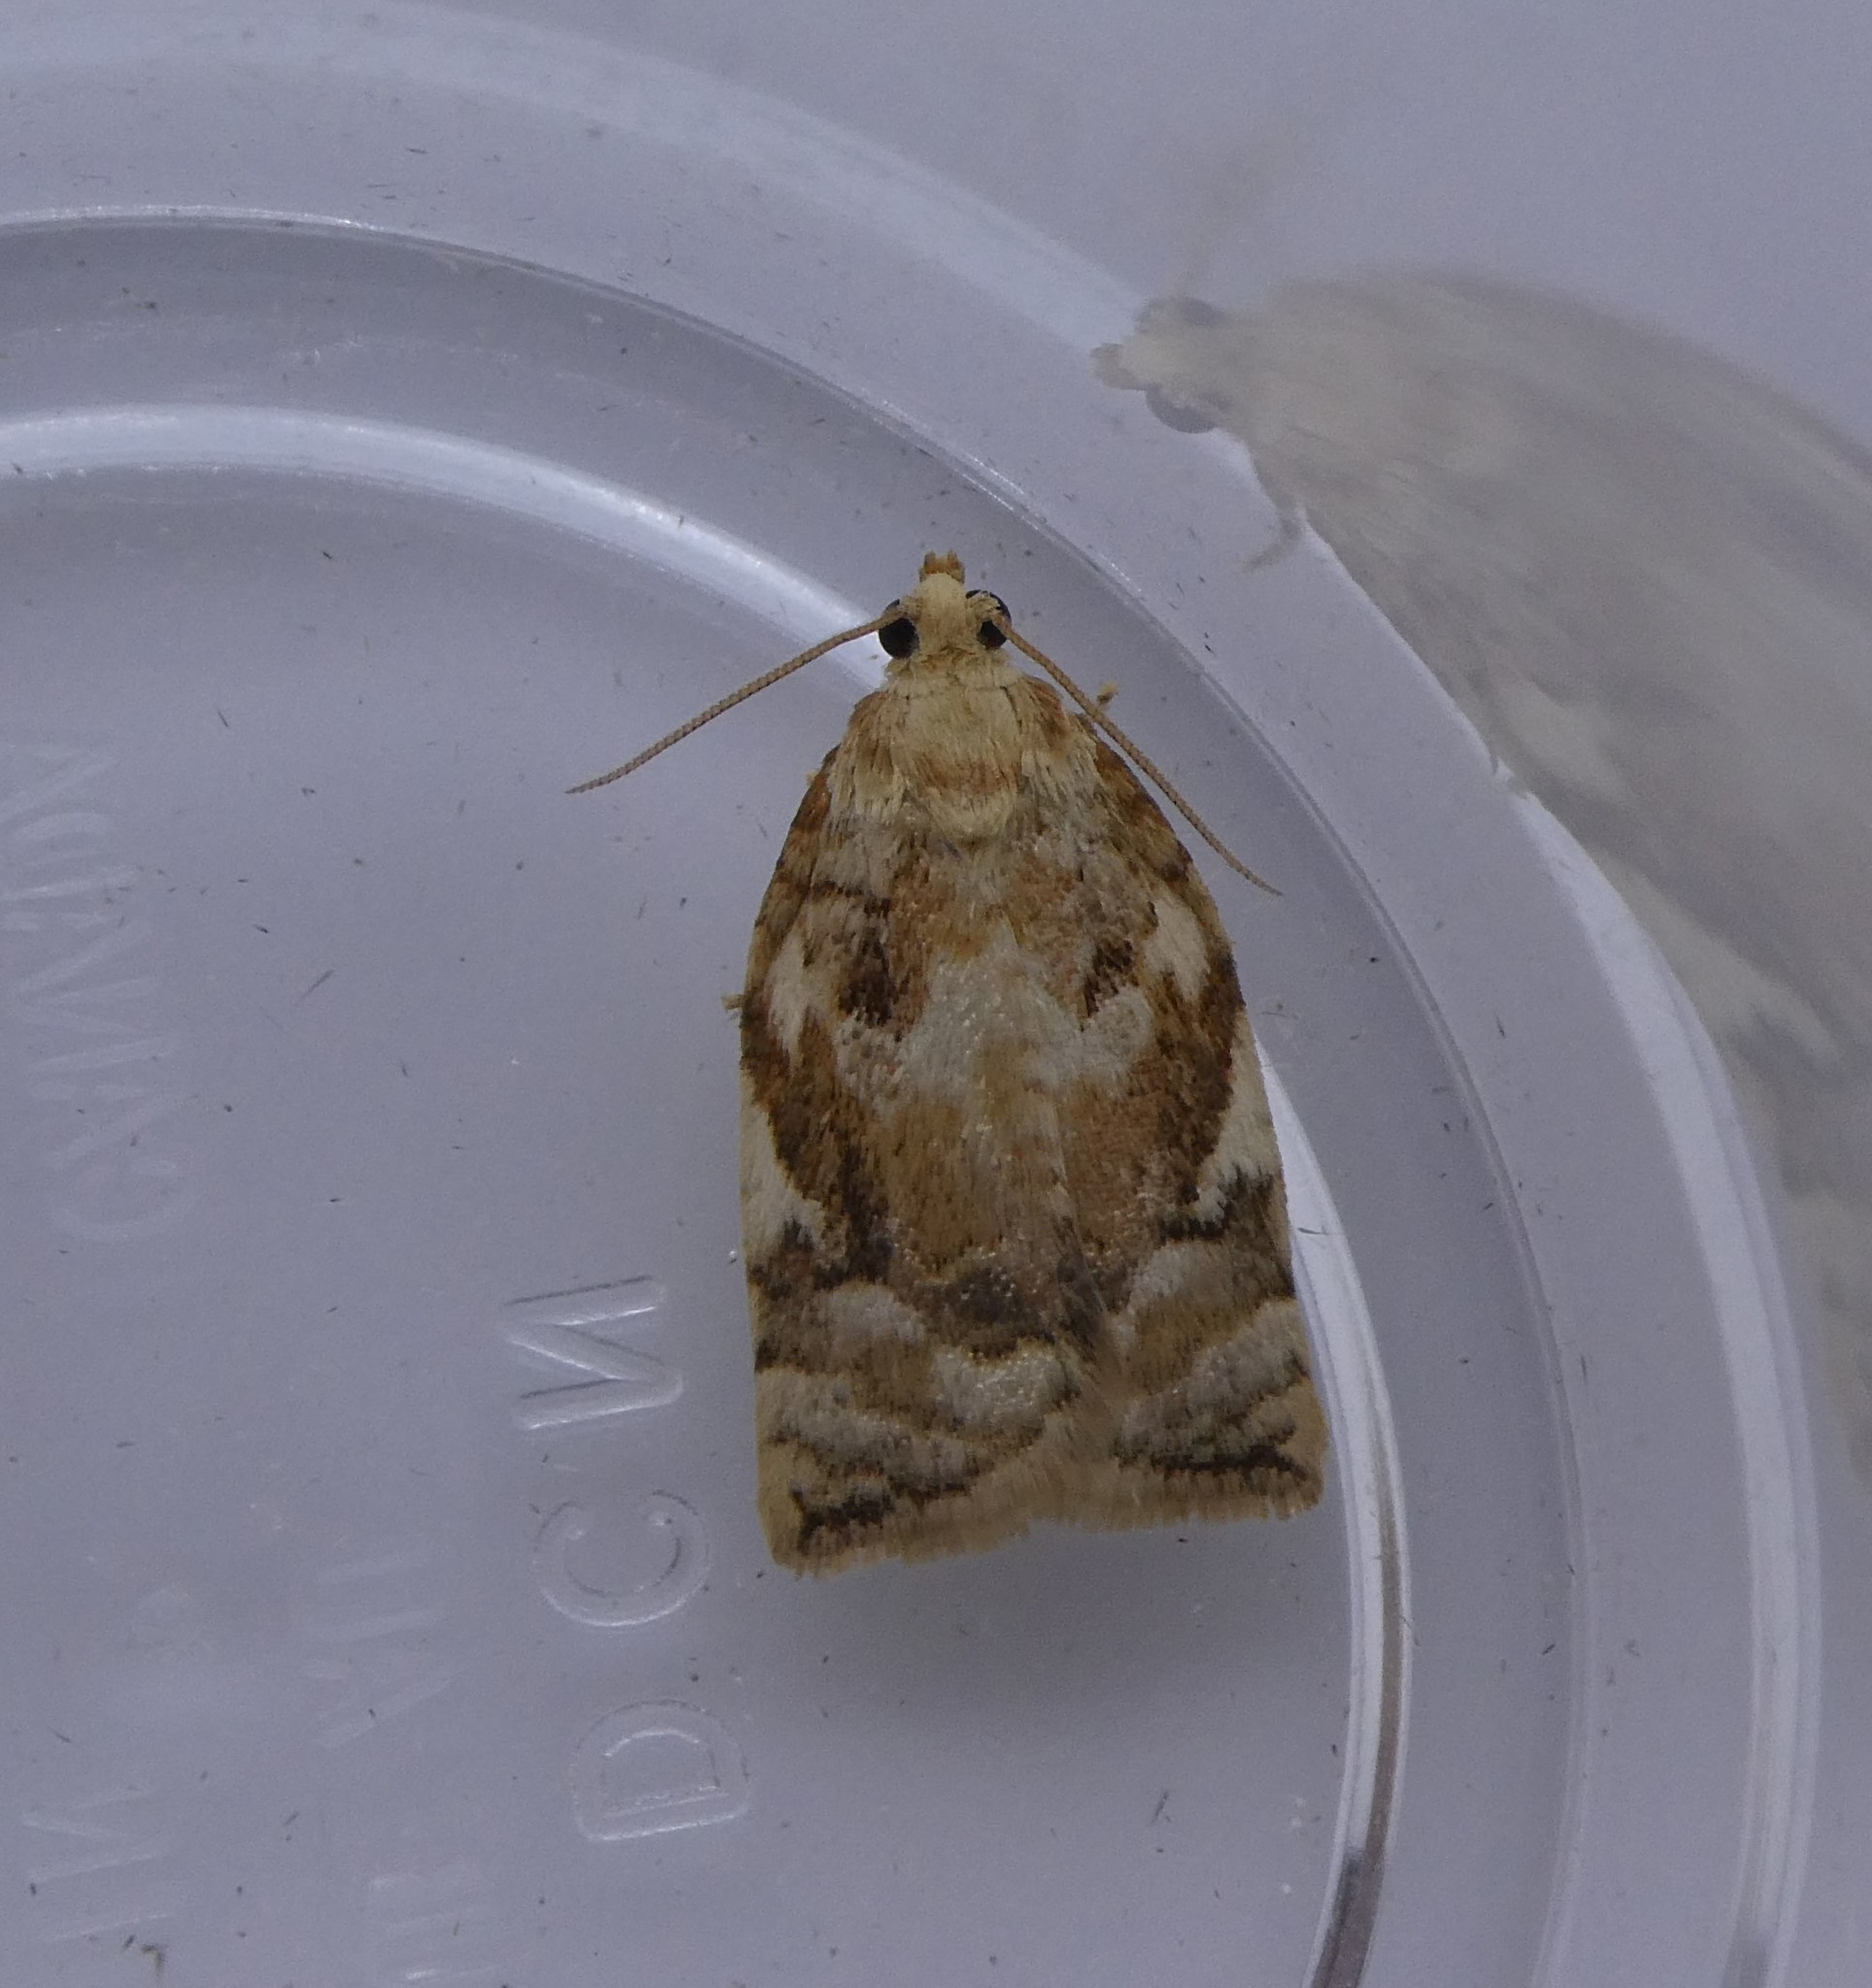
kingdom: Animalia
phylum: Arthropoda
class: Insecta
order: Lepidoptera
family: Tortricidae
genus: Archips
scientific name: Archips semiferanus
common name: Oak leafroller
